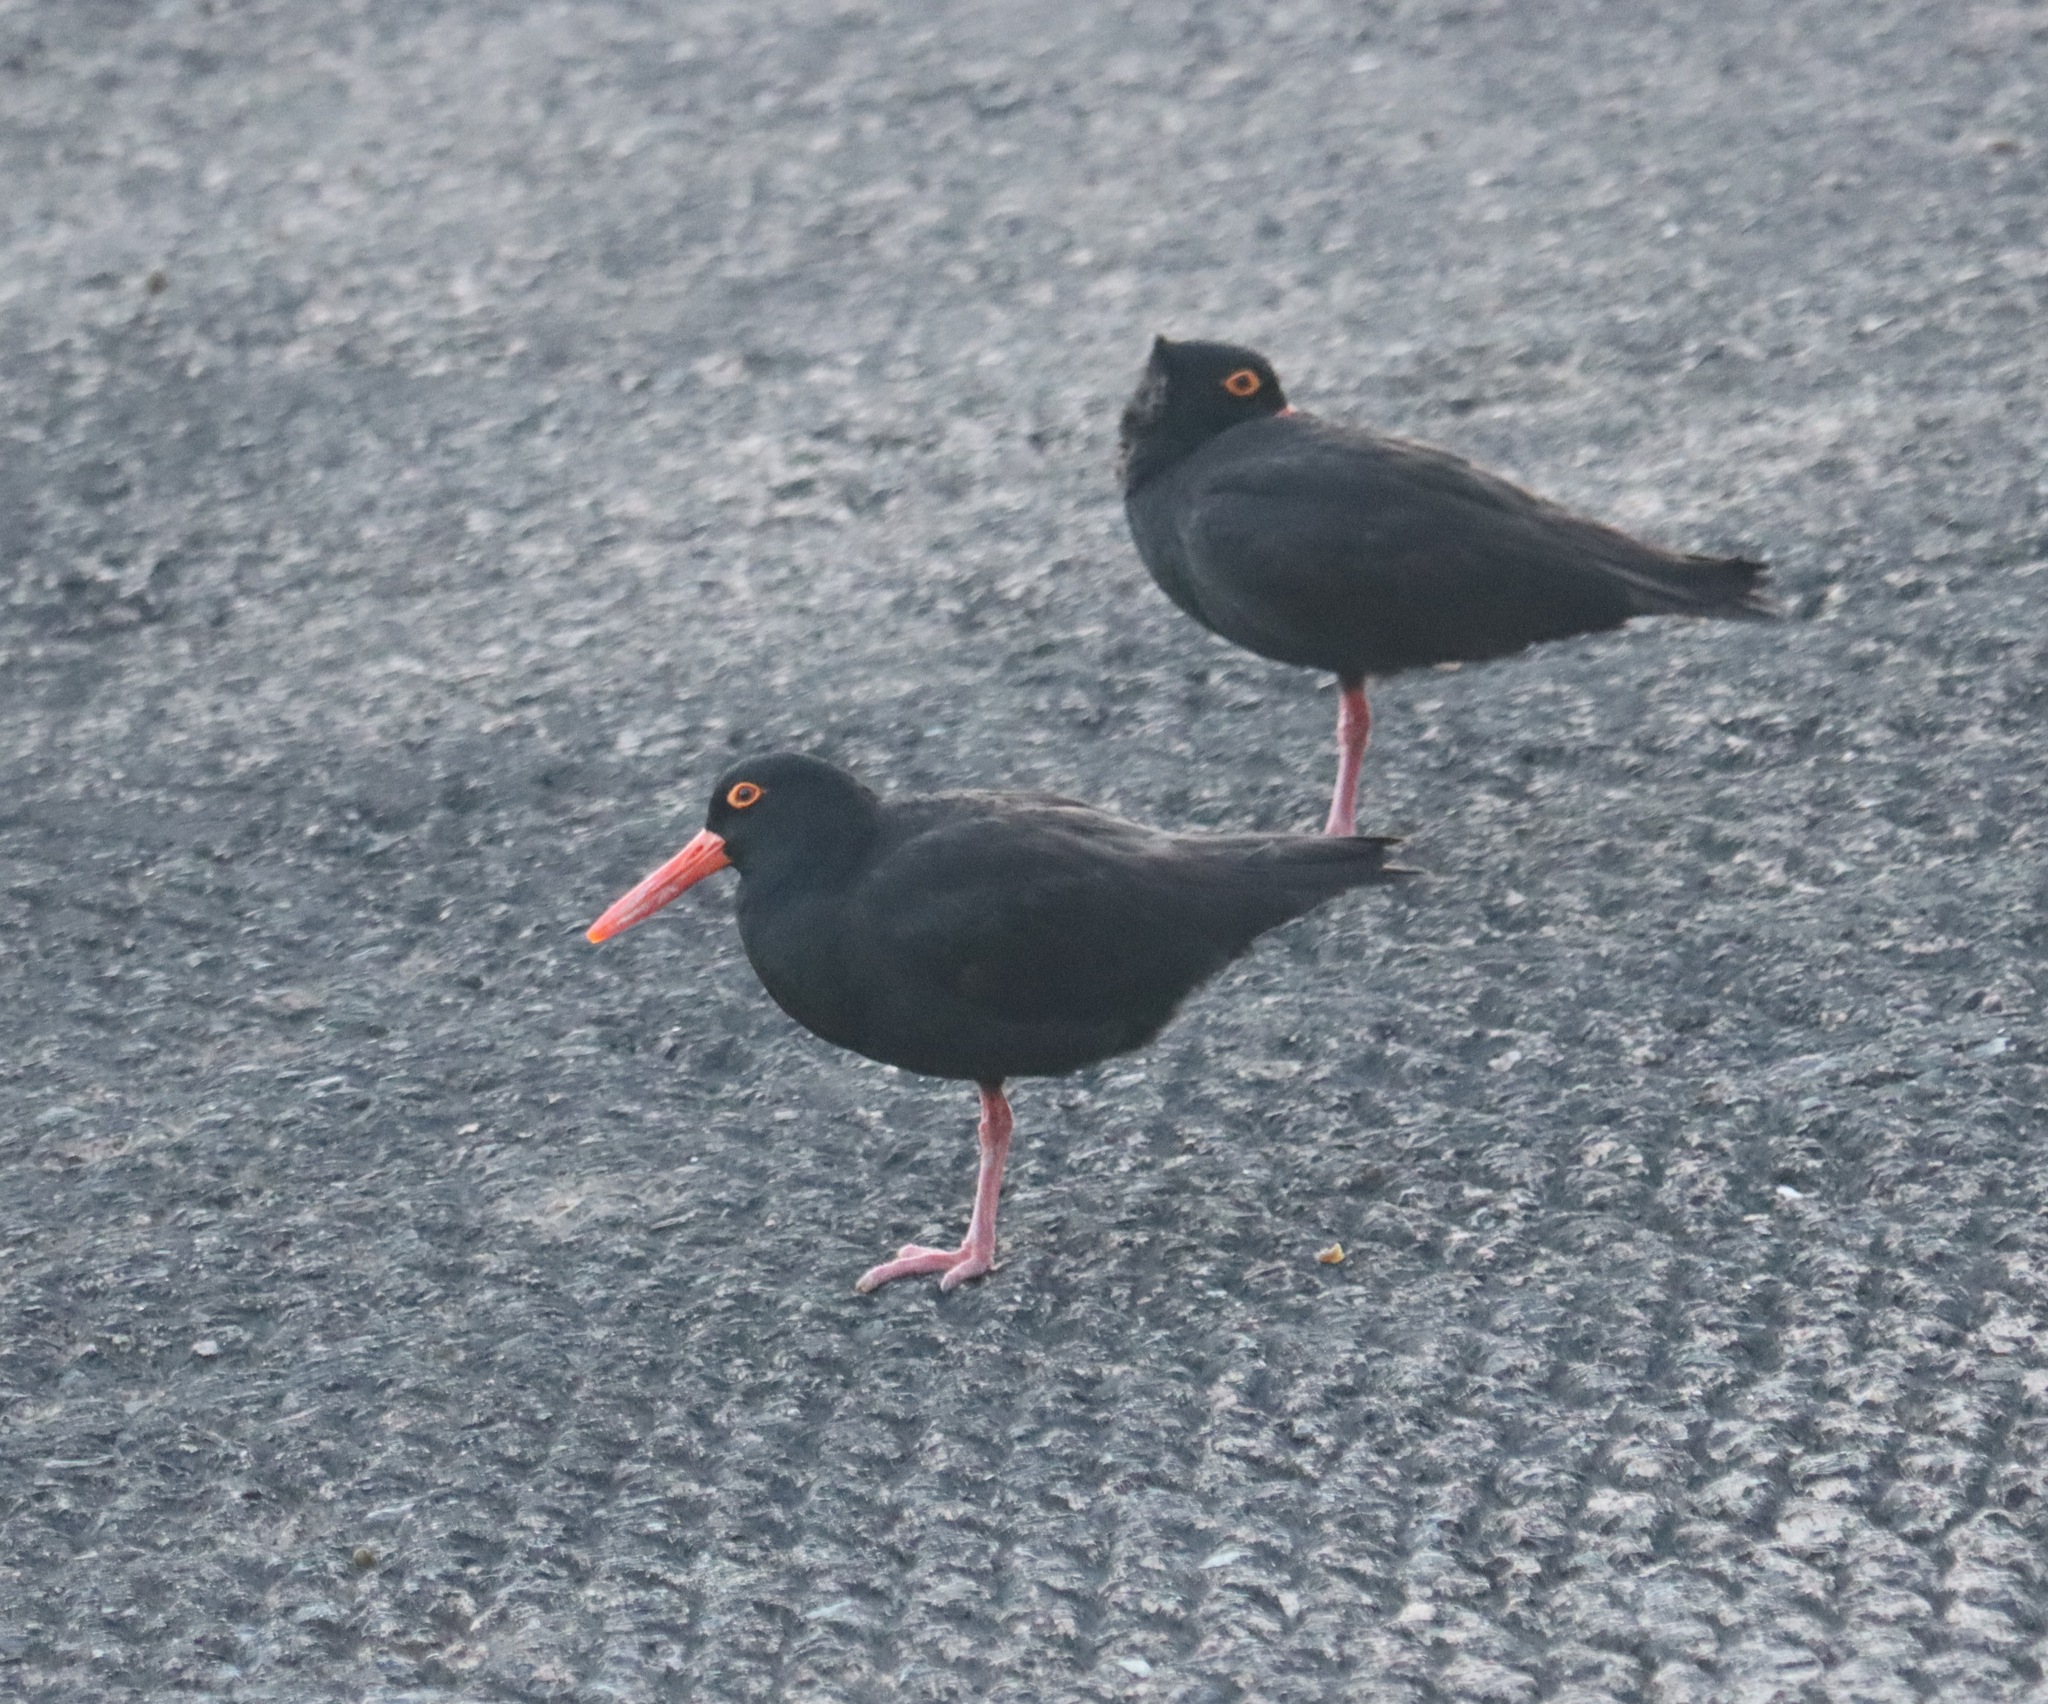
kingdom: Animalia
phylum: Chordata
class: Aves
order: Charadriiformes
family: Haematopodidae
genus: Haematopus
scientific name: Haematopus fuliginosus
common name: Sooty oystercatcher
